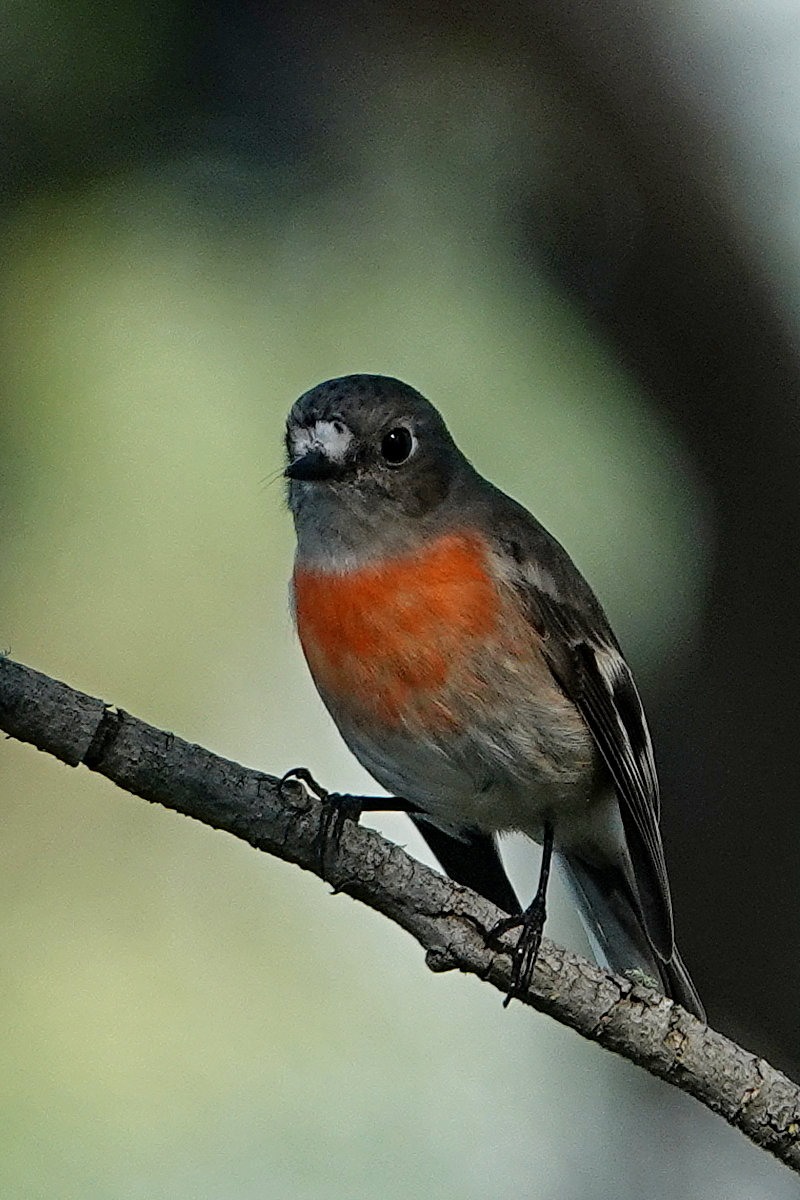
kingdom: Animalia
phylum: Chordata
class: Aves
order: Passeriformes
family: Petroicidae
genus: Petroica
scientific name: Petroica boodang
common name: Scarlet robin
